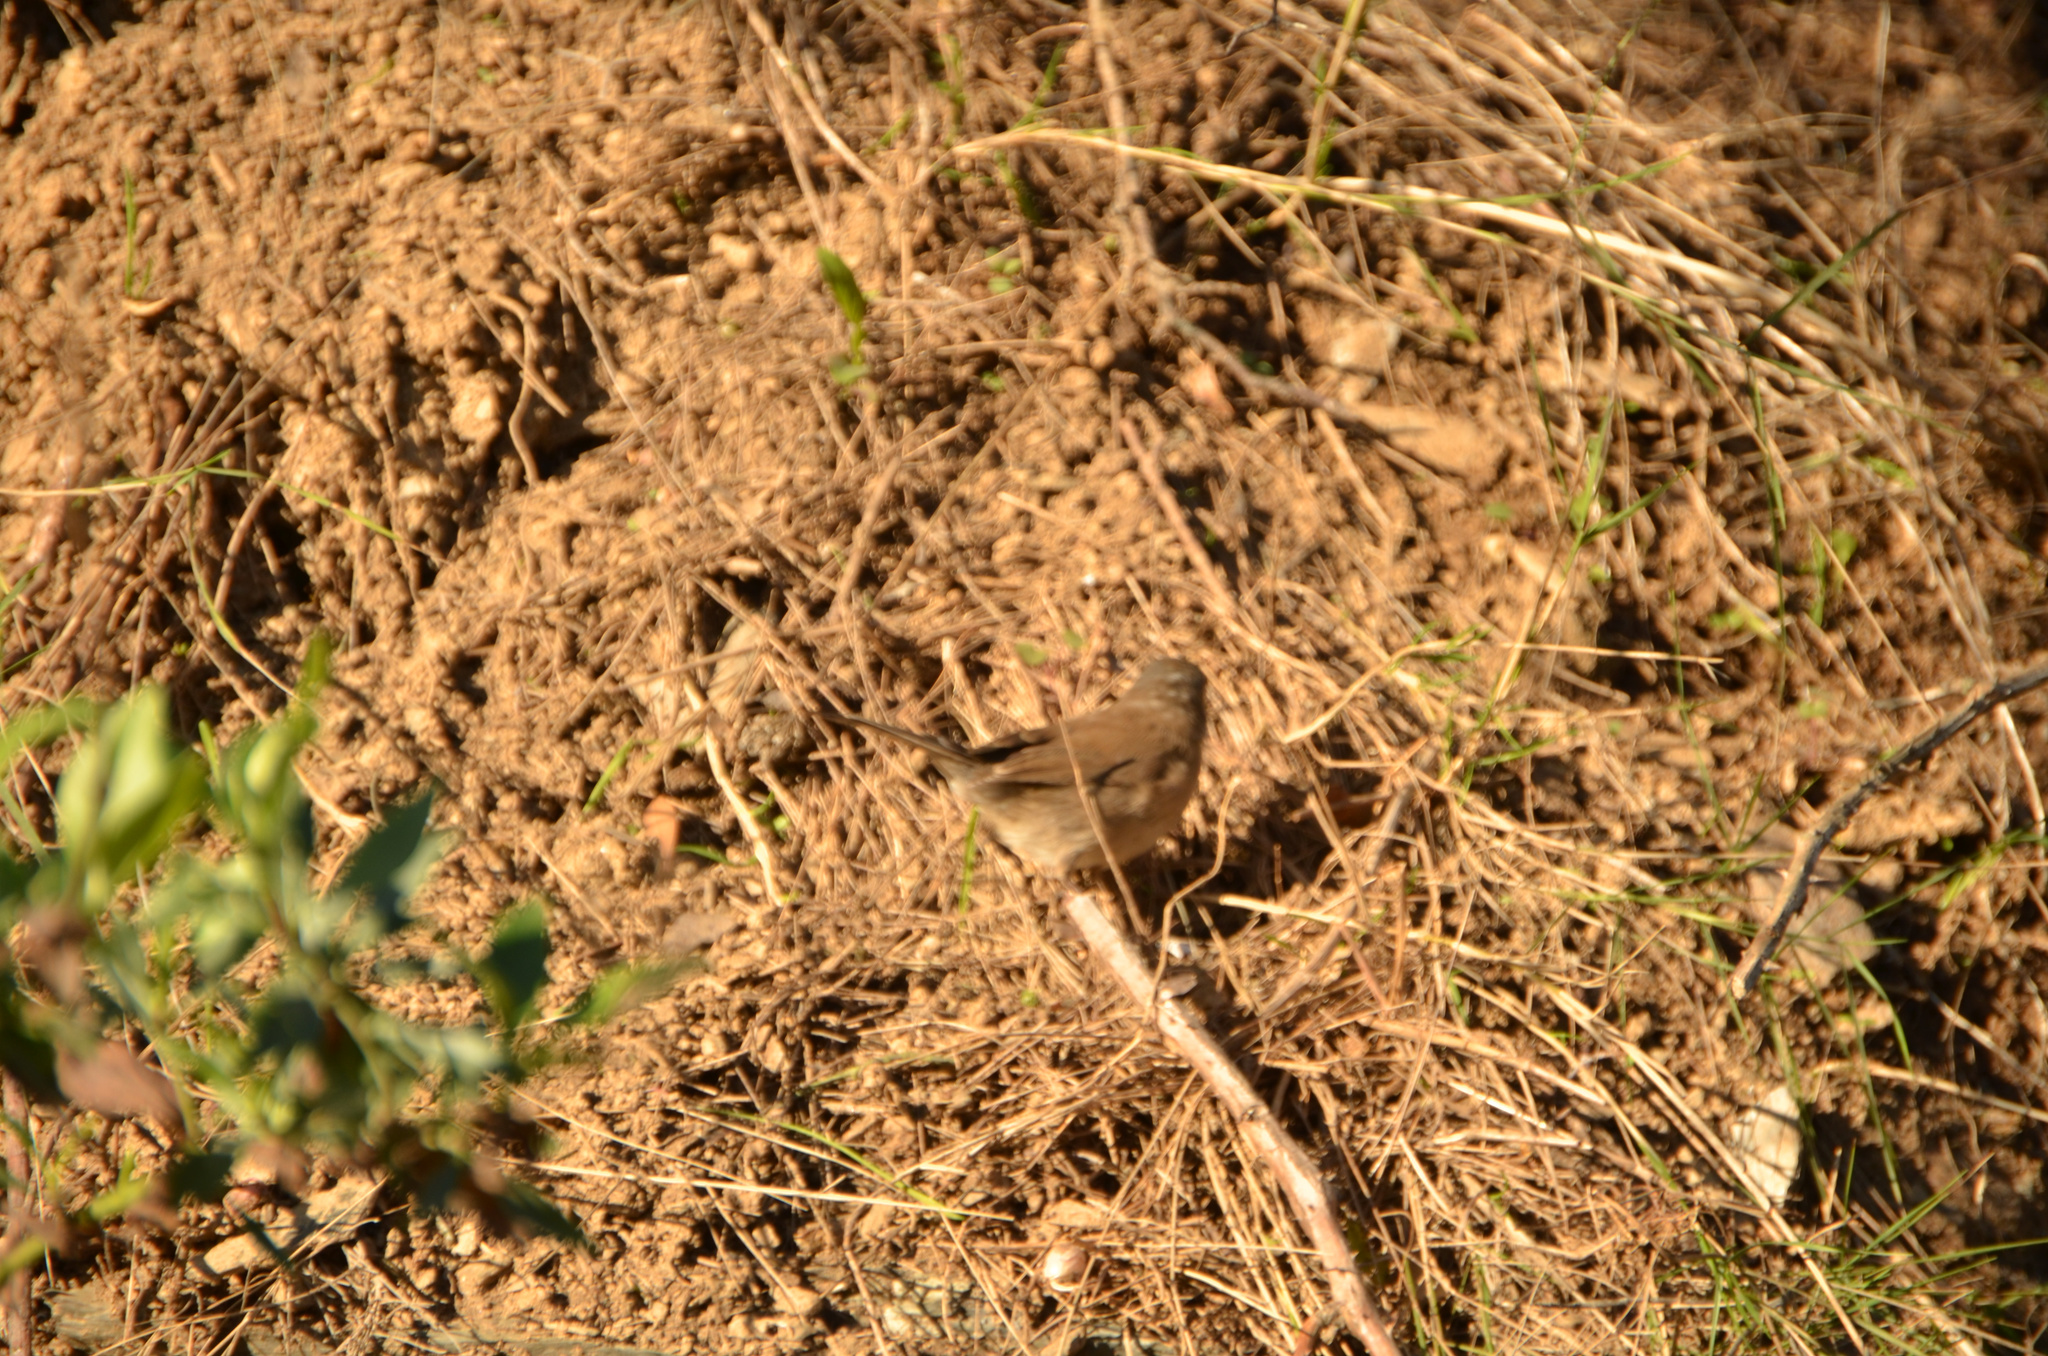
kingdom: Animalia
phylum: Chordata
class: Aves
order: Passeriformes
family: Sylviidae
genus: Curruca
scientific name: Curruca melanocephala
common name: Sardinian warbler
